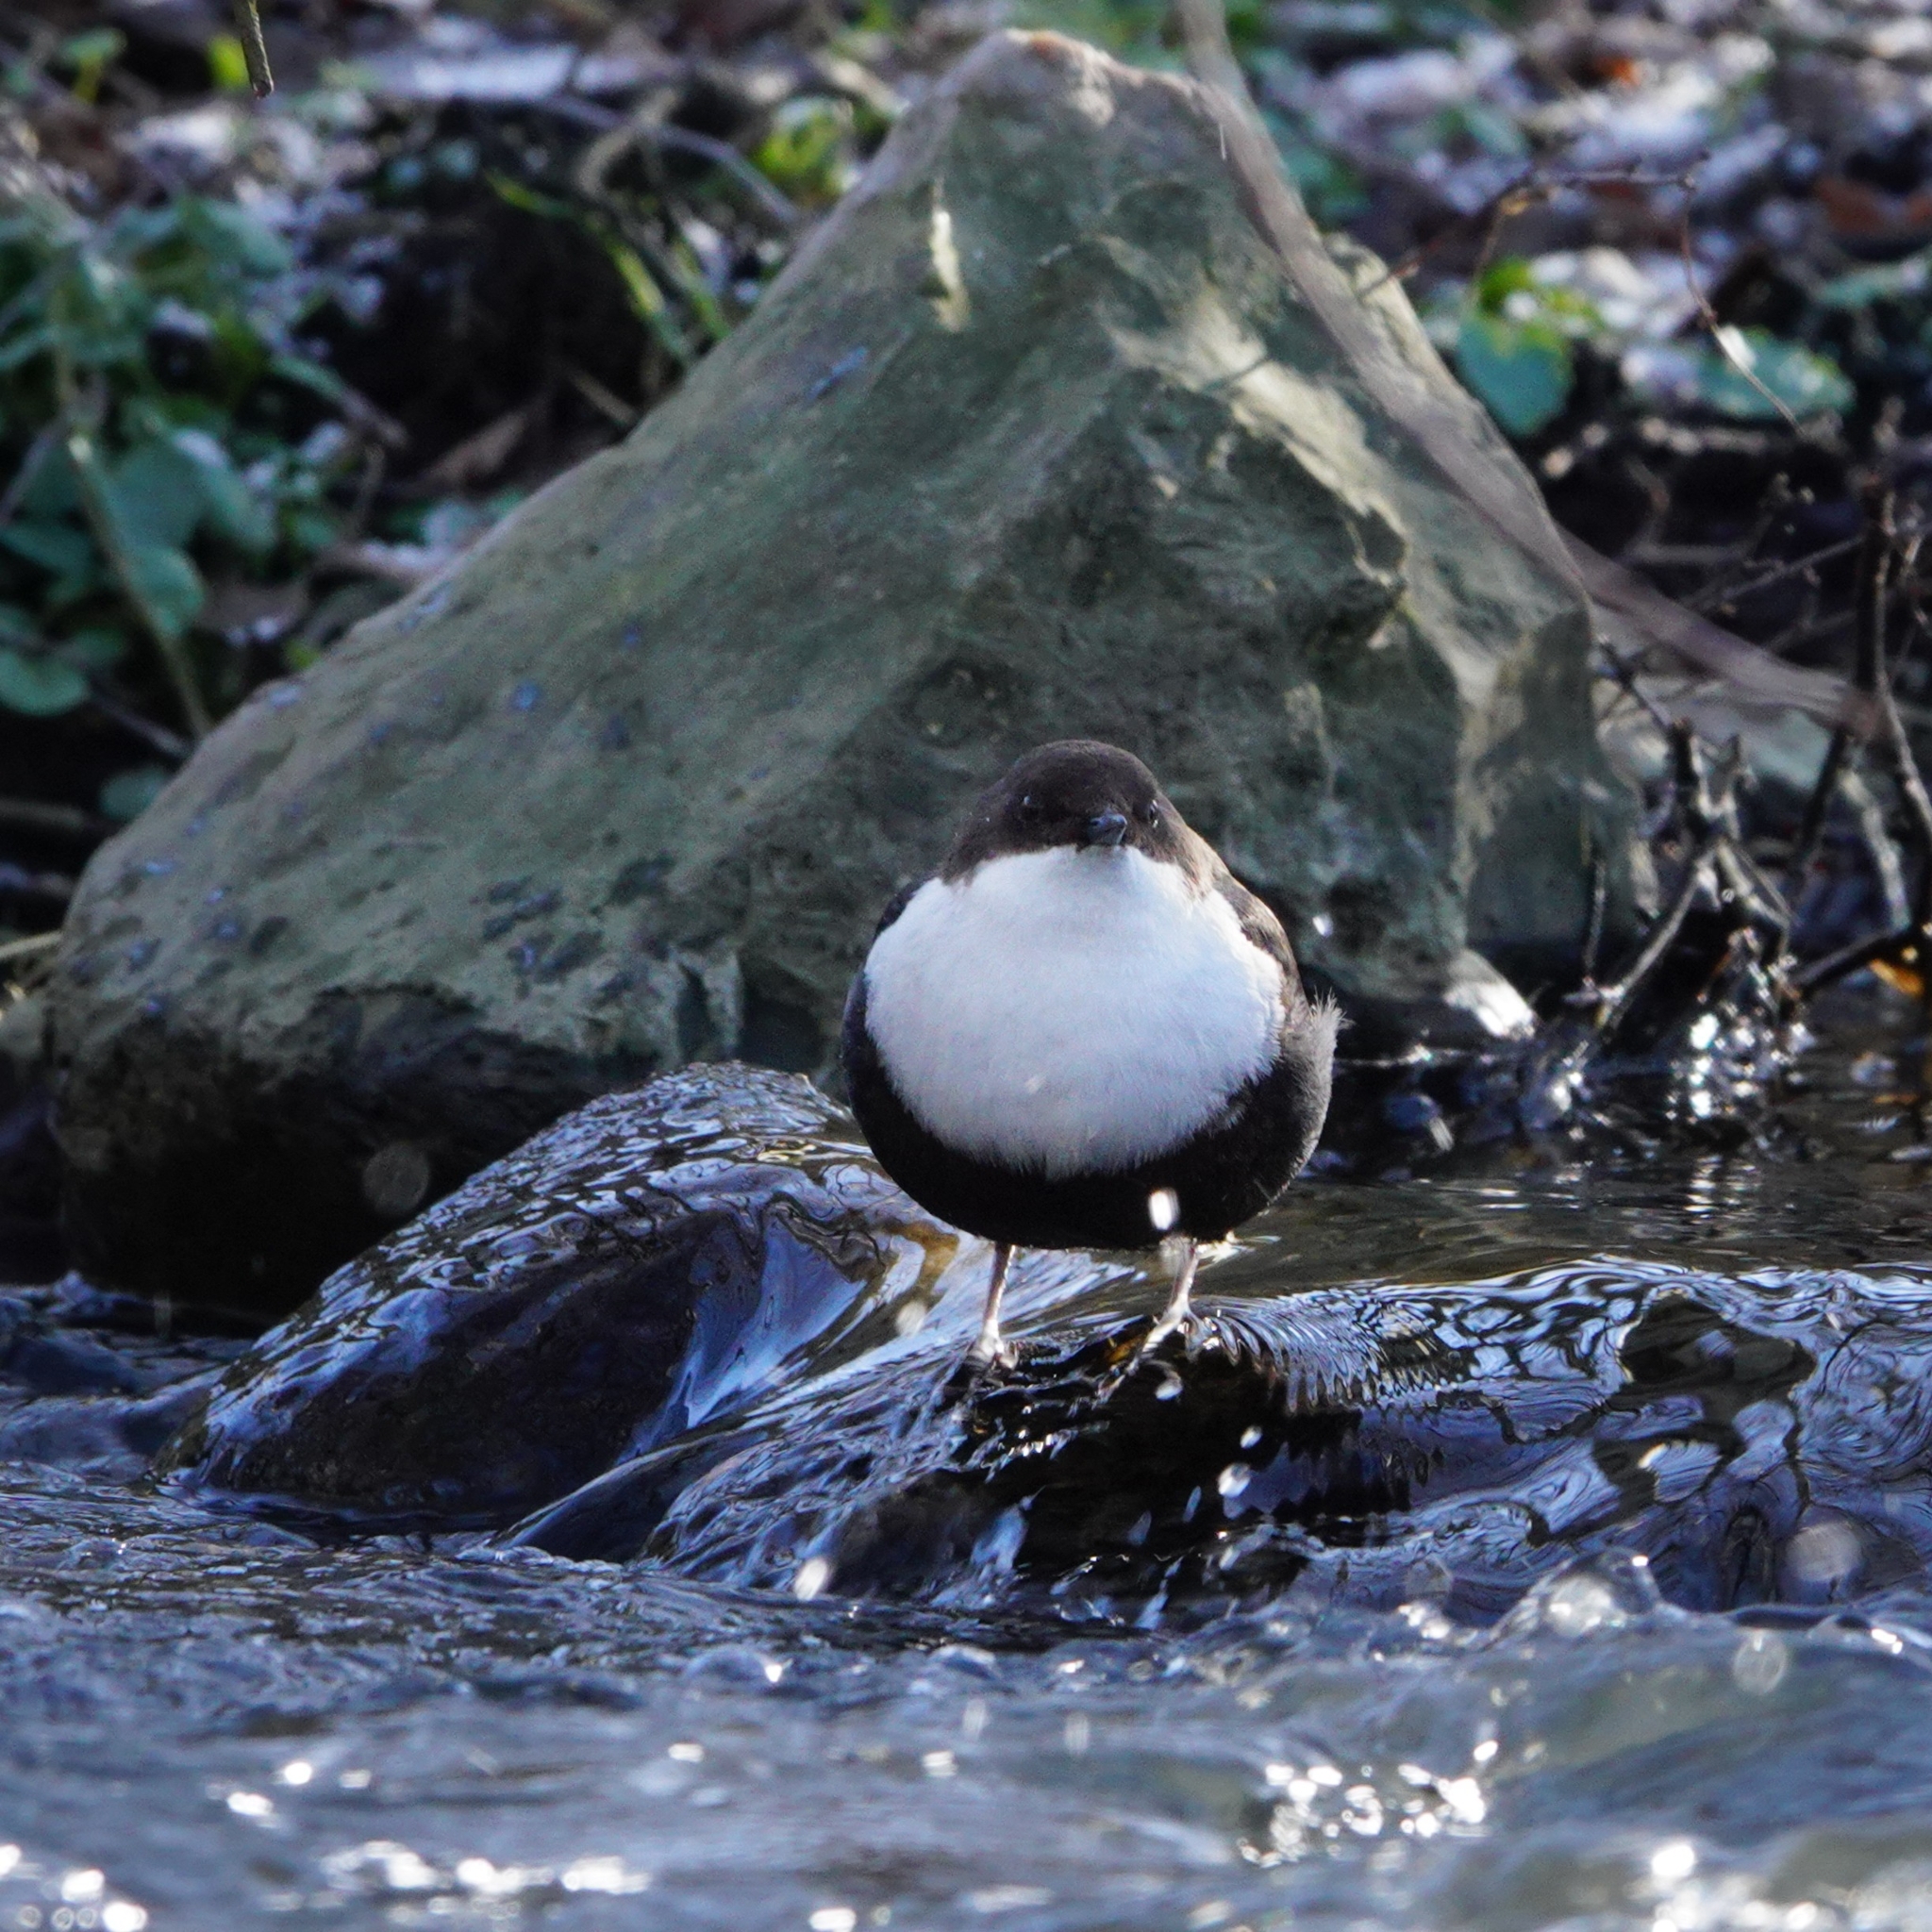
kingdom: Animalia
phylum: Chordata
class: Aves
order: Passeriformes
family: Cinclidae
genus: Cinclus
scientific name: Cinclus cinclus
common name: White-throated dipper
